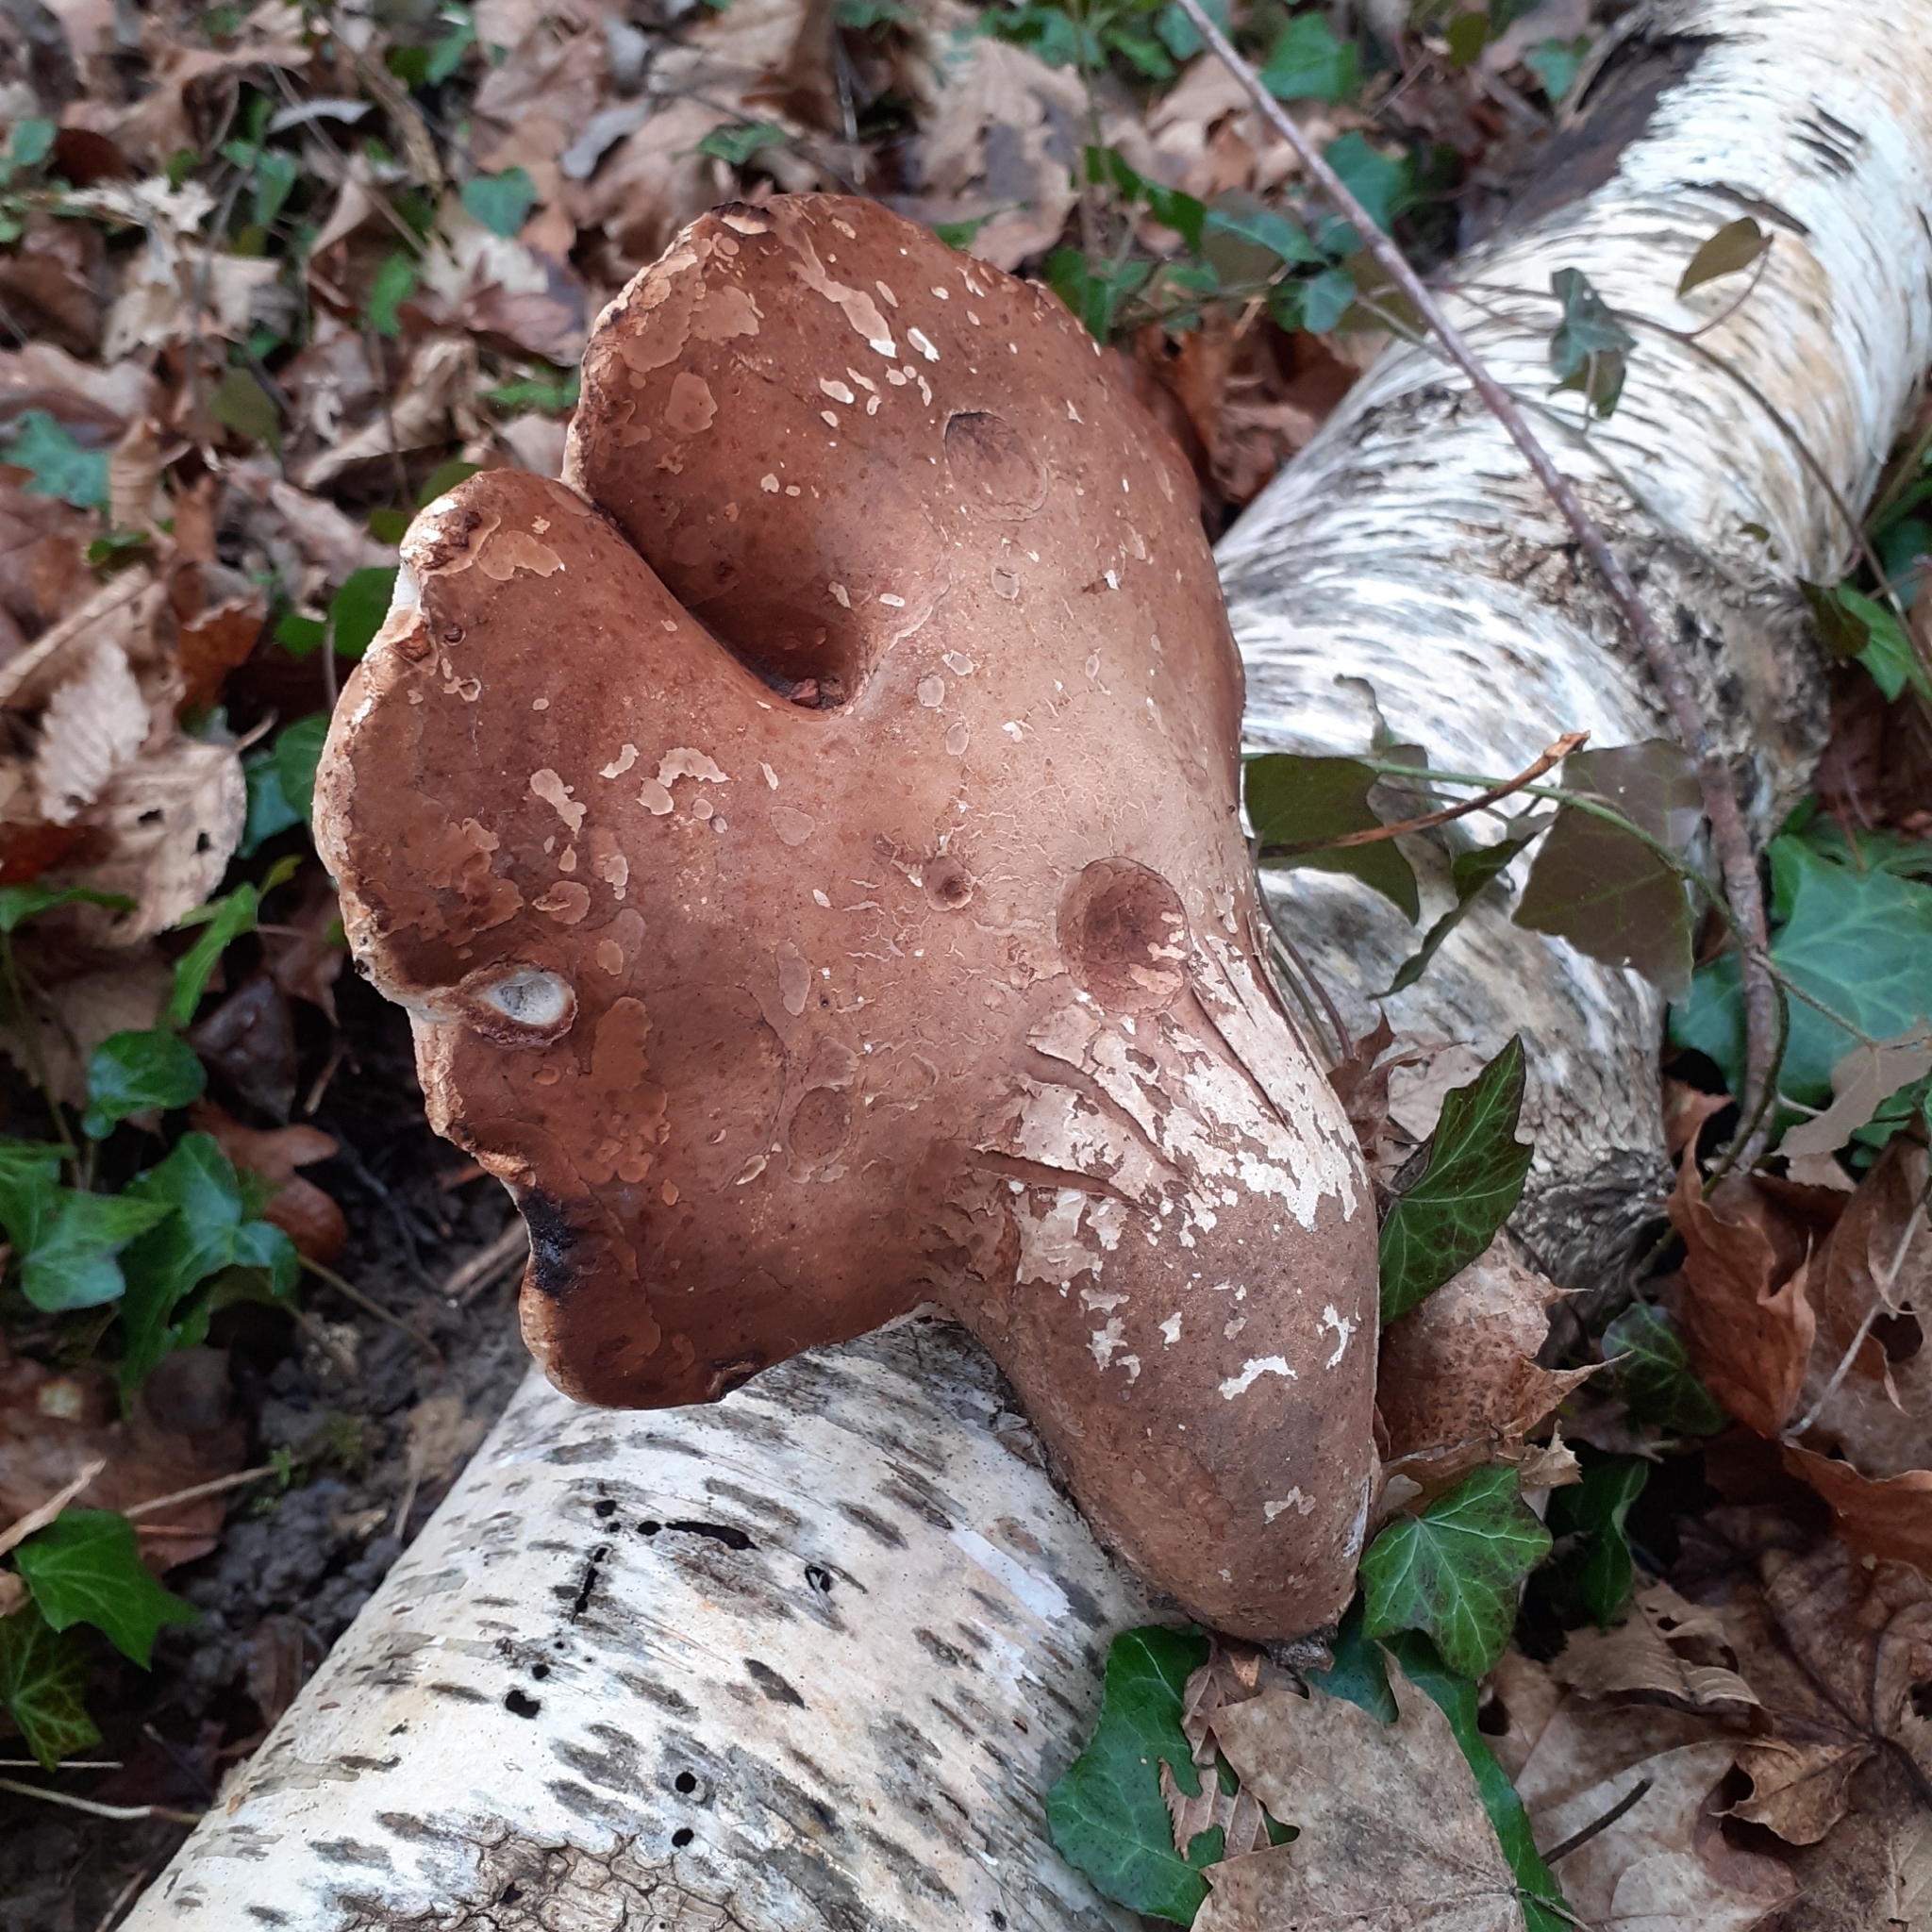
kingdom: Fungi
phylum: Basidiomycota
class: Agaricomycetes
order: Polyporales
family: Fomitopsidaceae
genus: Fomitopsis
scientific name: Fomitopsis betulina
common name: Birch polypore
